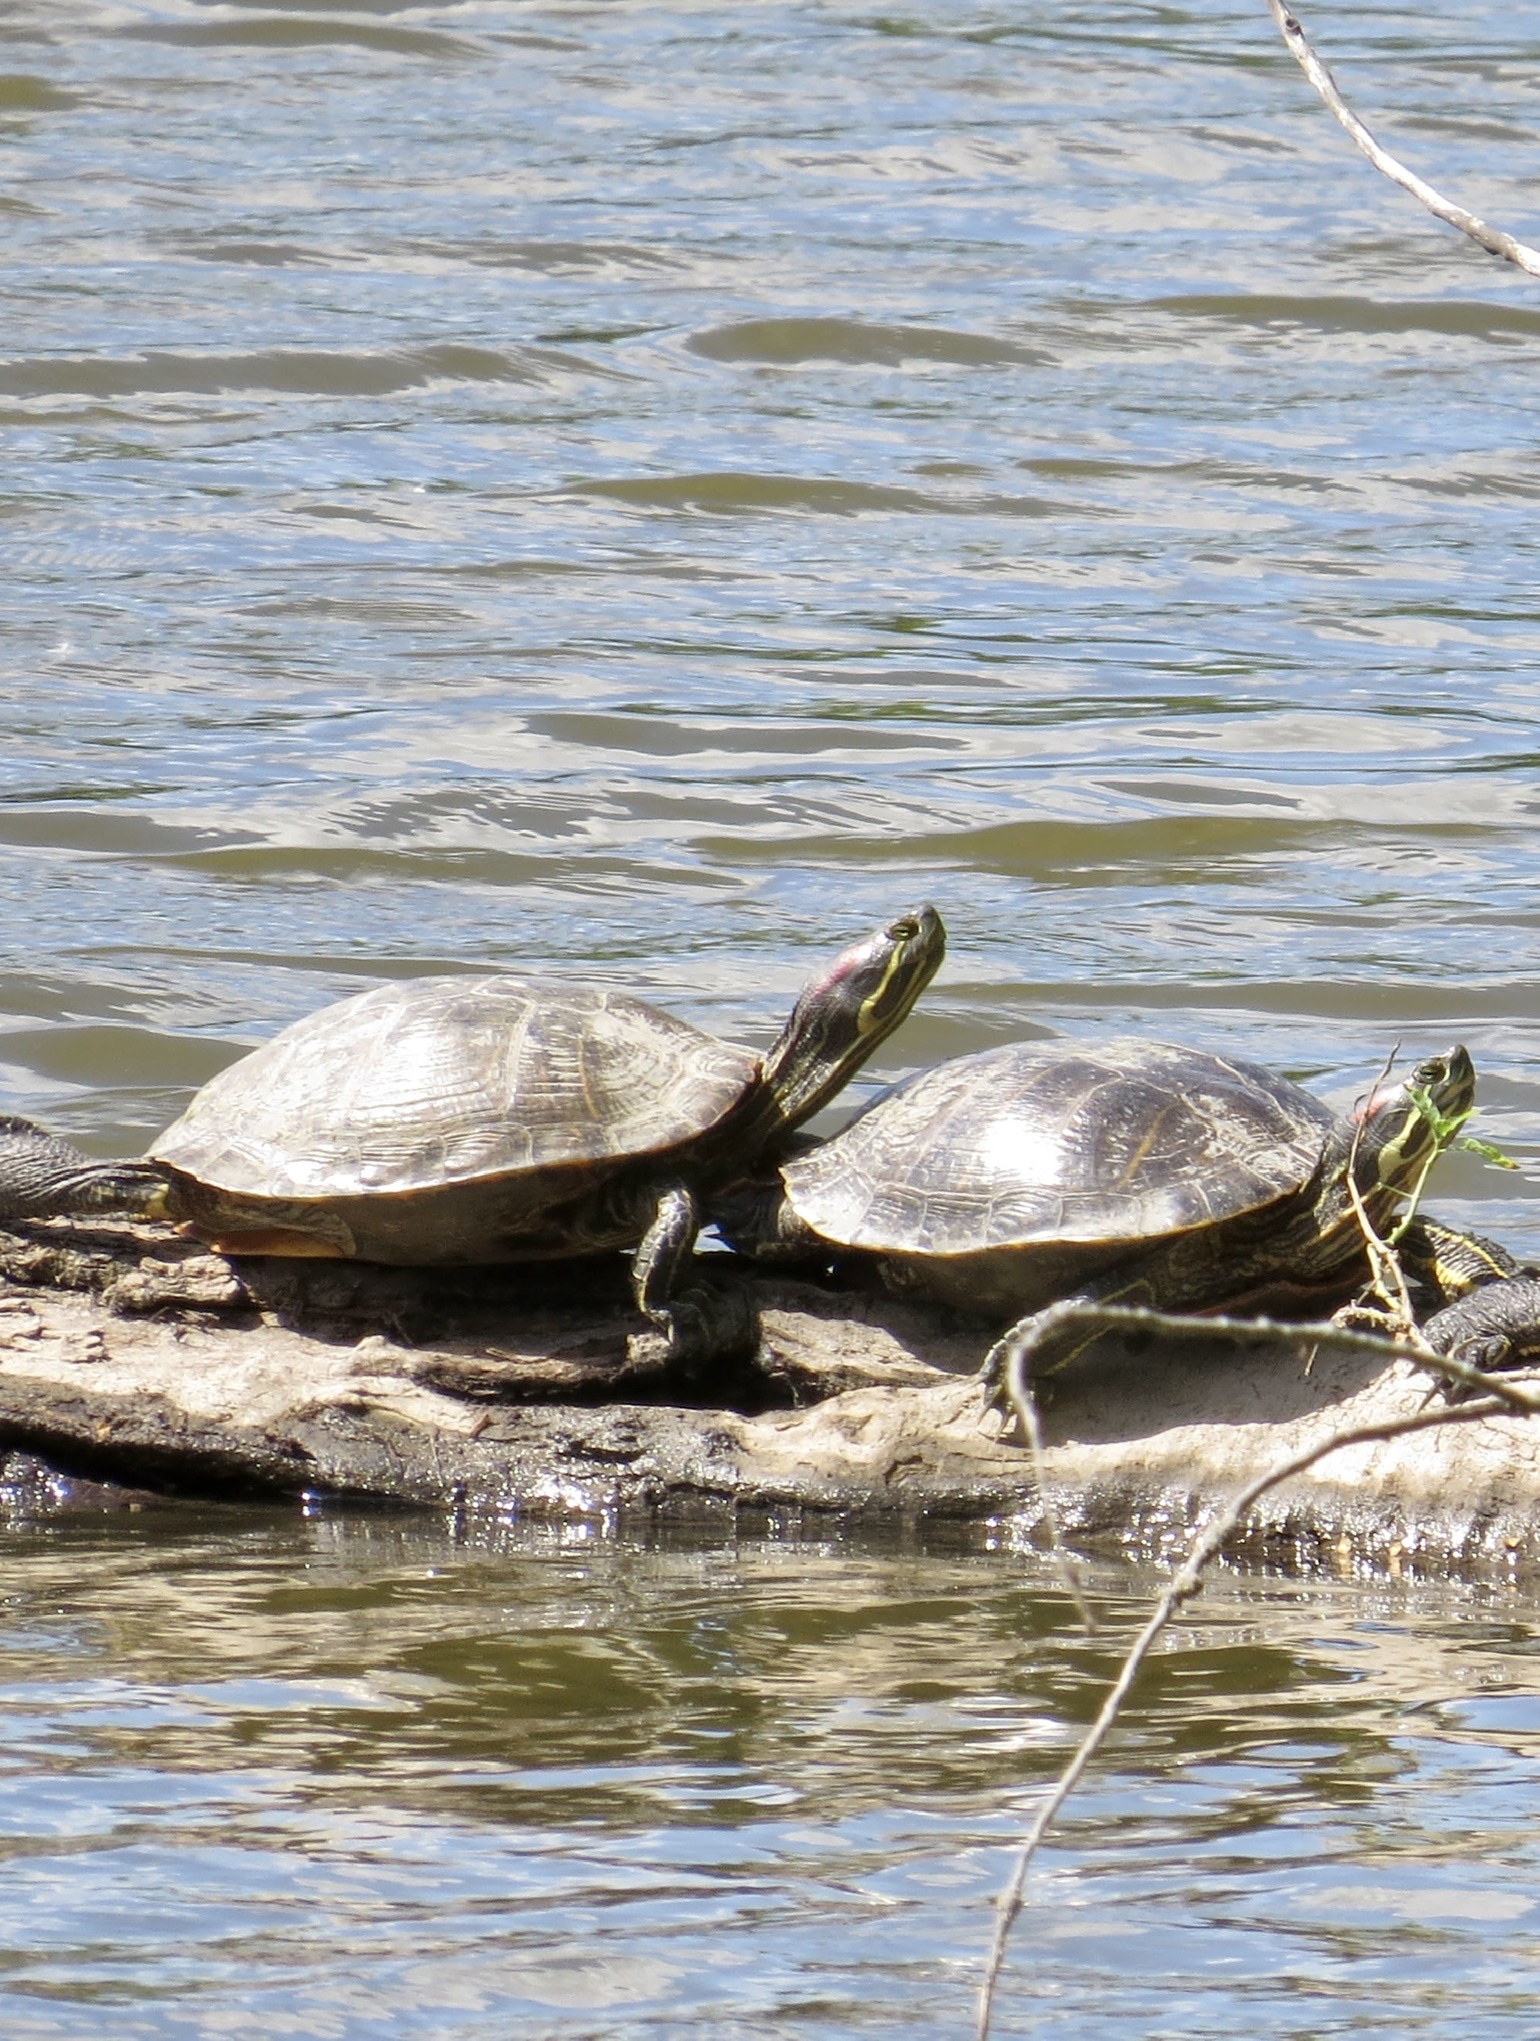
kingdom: Animalia
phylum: Chordata
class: Testudines
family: Emydidae
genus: Trachemys
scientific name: Trachemys scripta
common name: Slider
